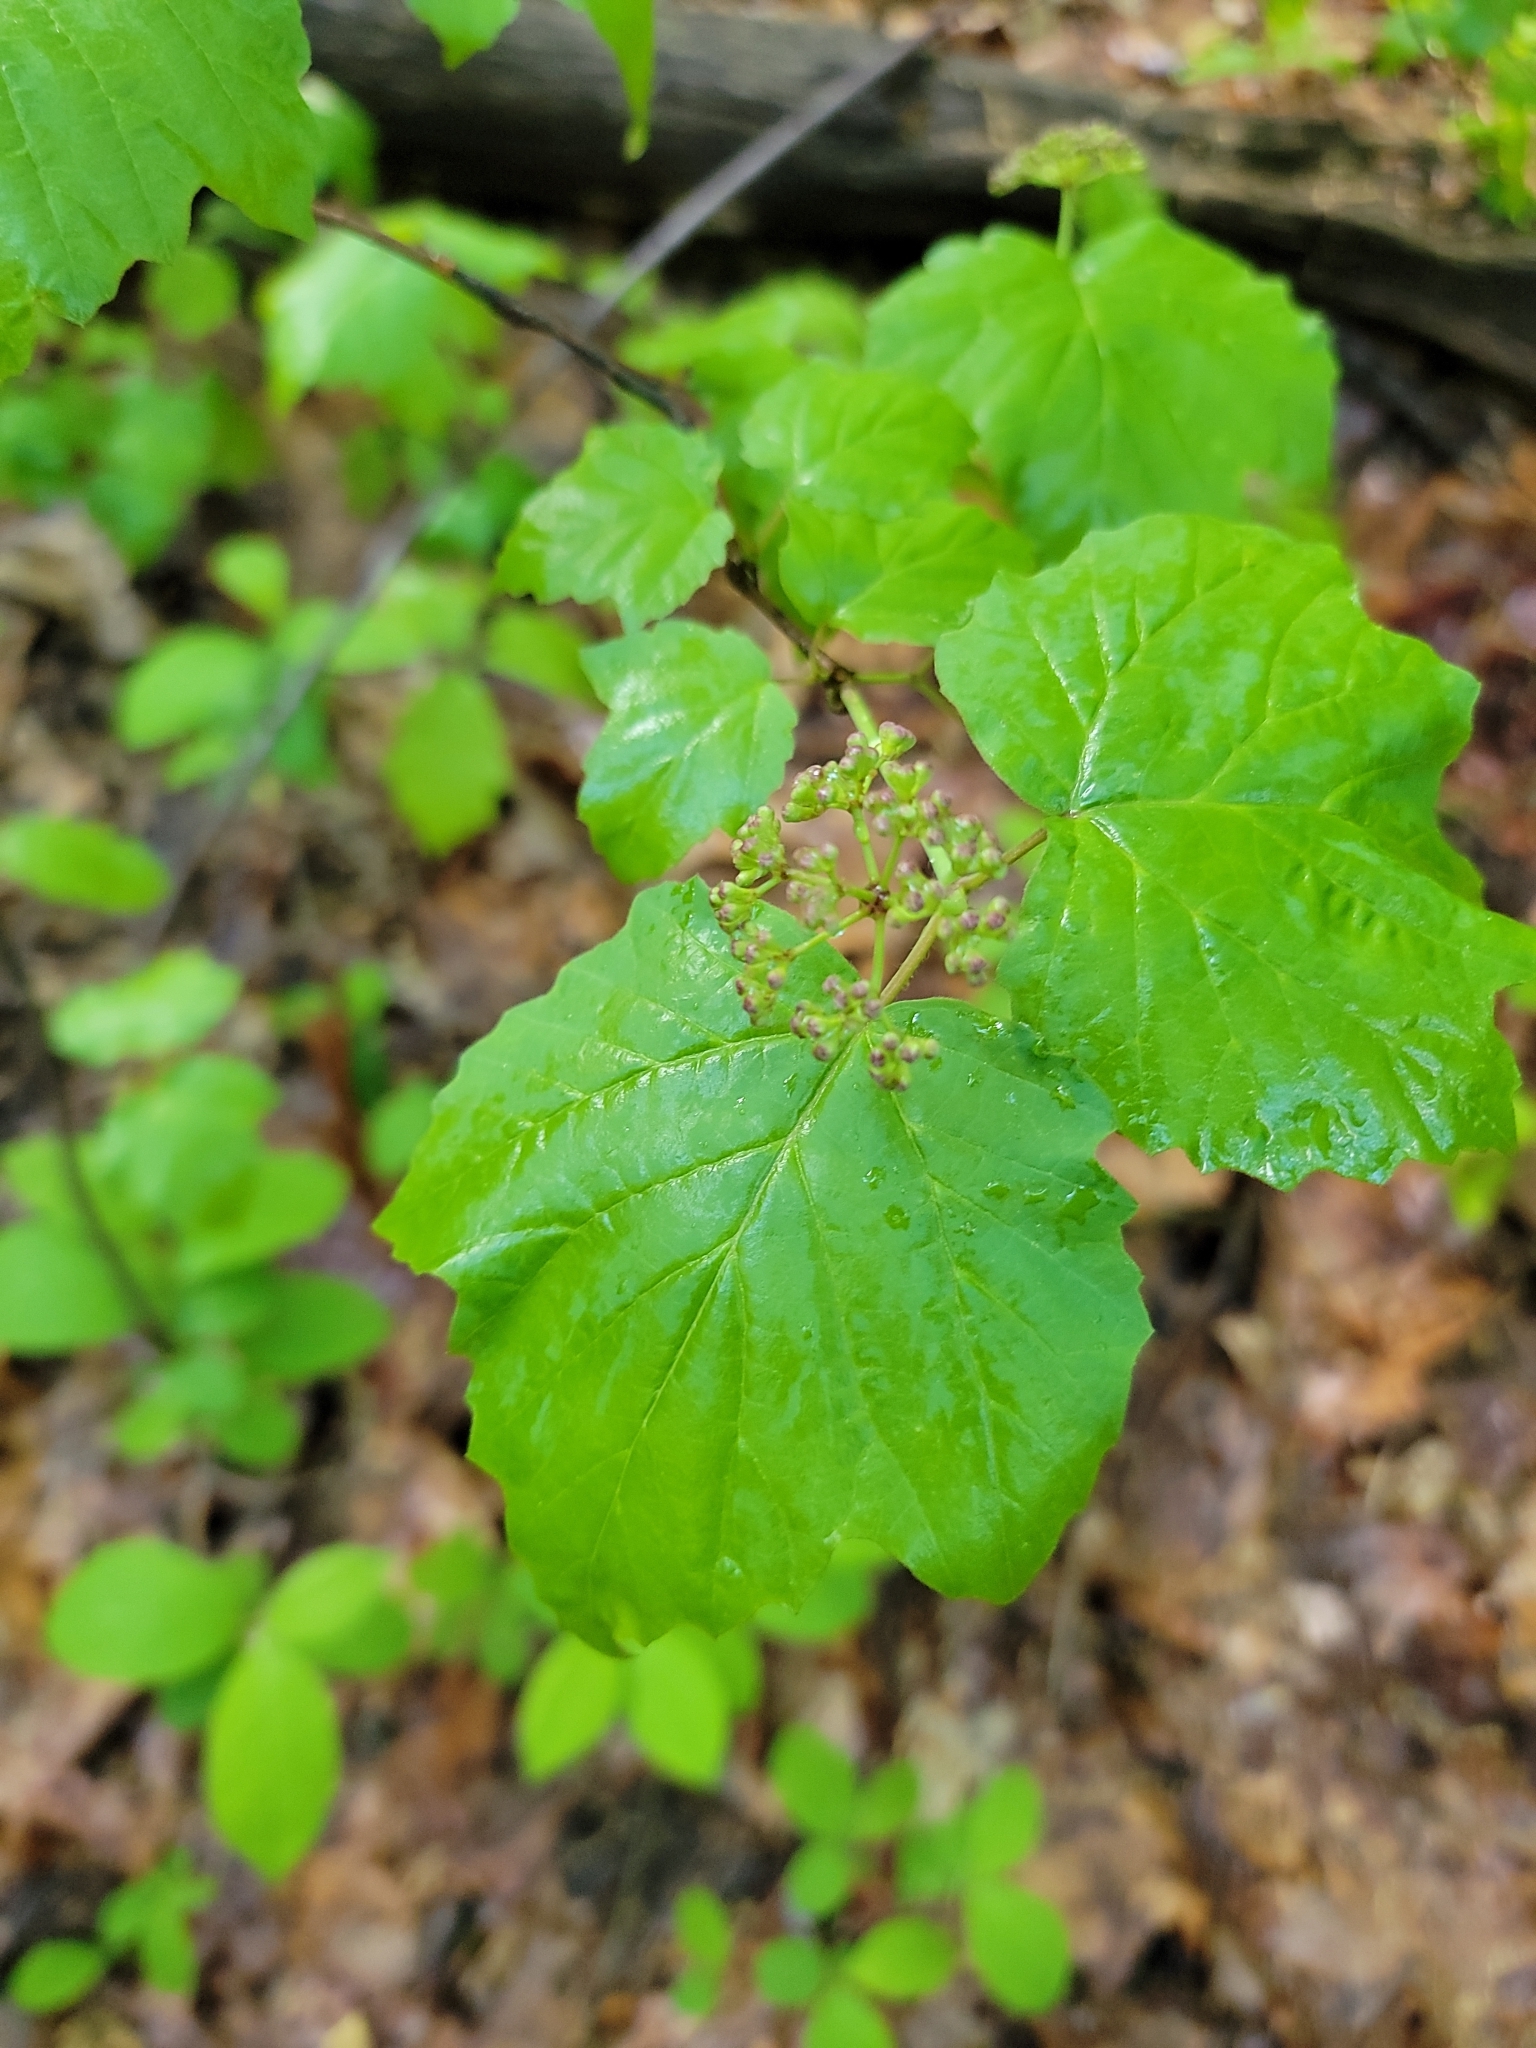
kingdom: Plantae
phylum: Tracheophyta
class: Magnoliopsida
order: Dipsacales
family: Viburnaceae
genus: Viburnum
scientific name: Viburnum acerifolium
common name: Dockmackie
